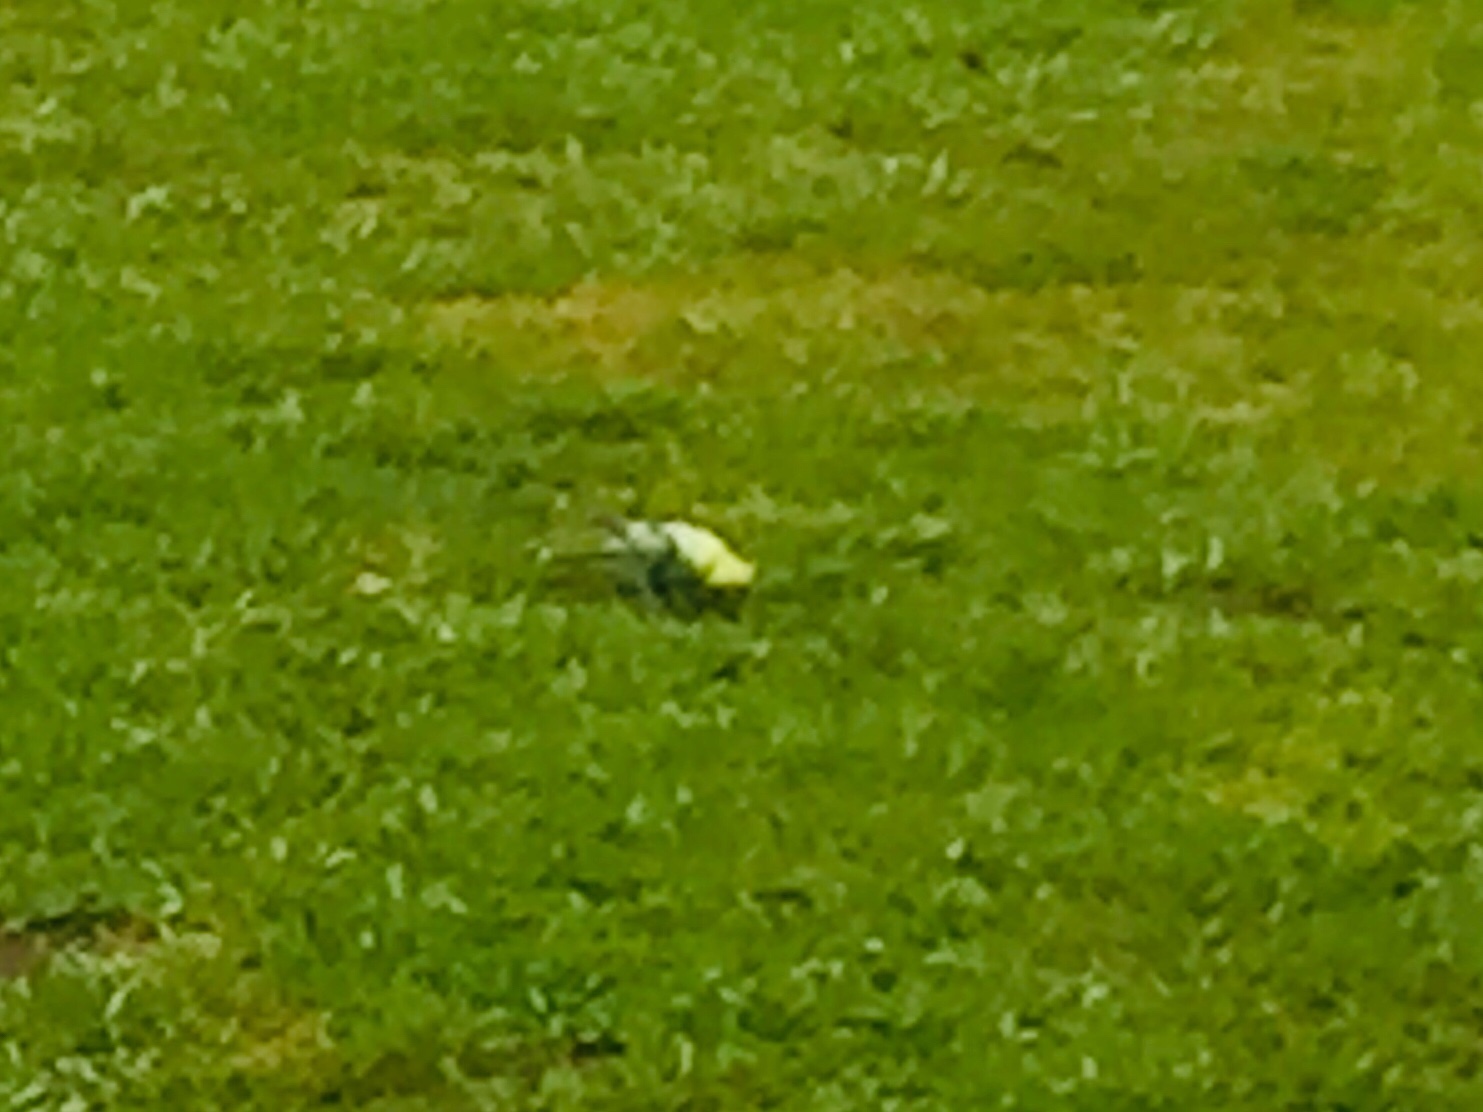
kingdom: Animalia
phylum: Chordata
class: Aves
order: Psittaciformes
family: Psittacidae
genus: Melopsittacus
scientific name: Melopsittacus undulatus
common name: Budgerigar
